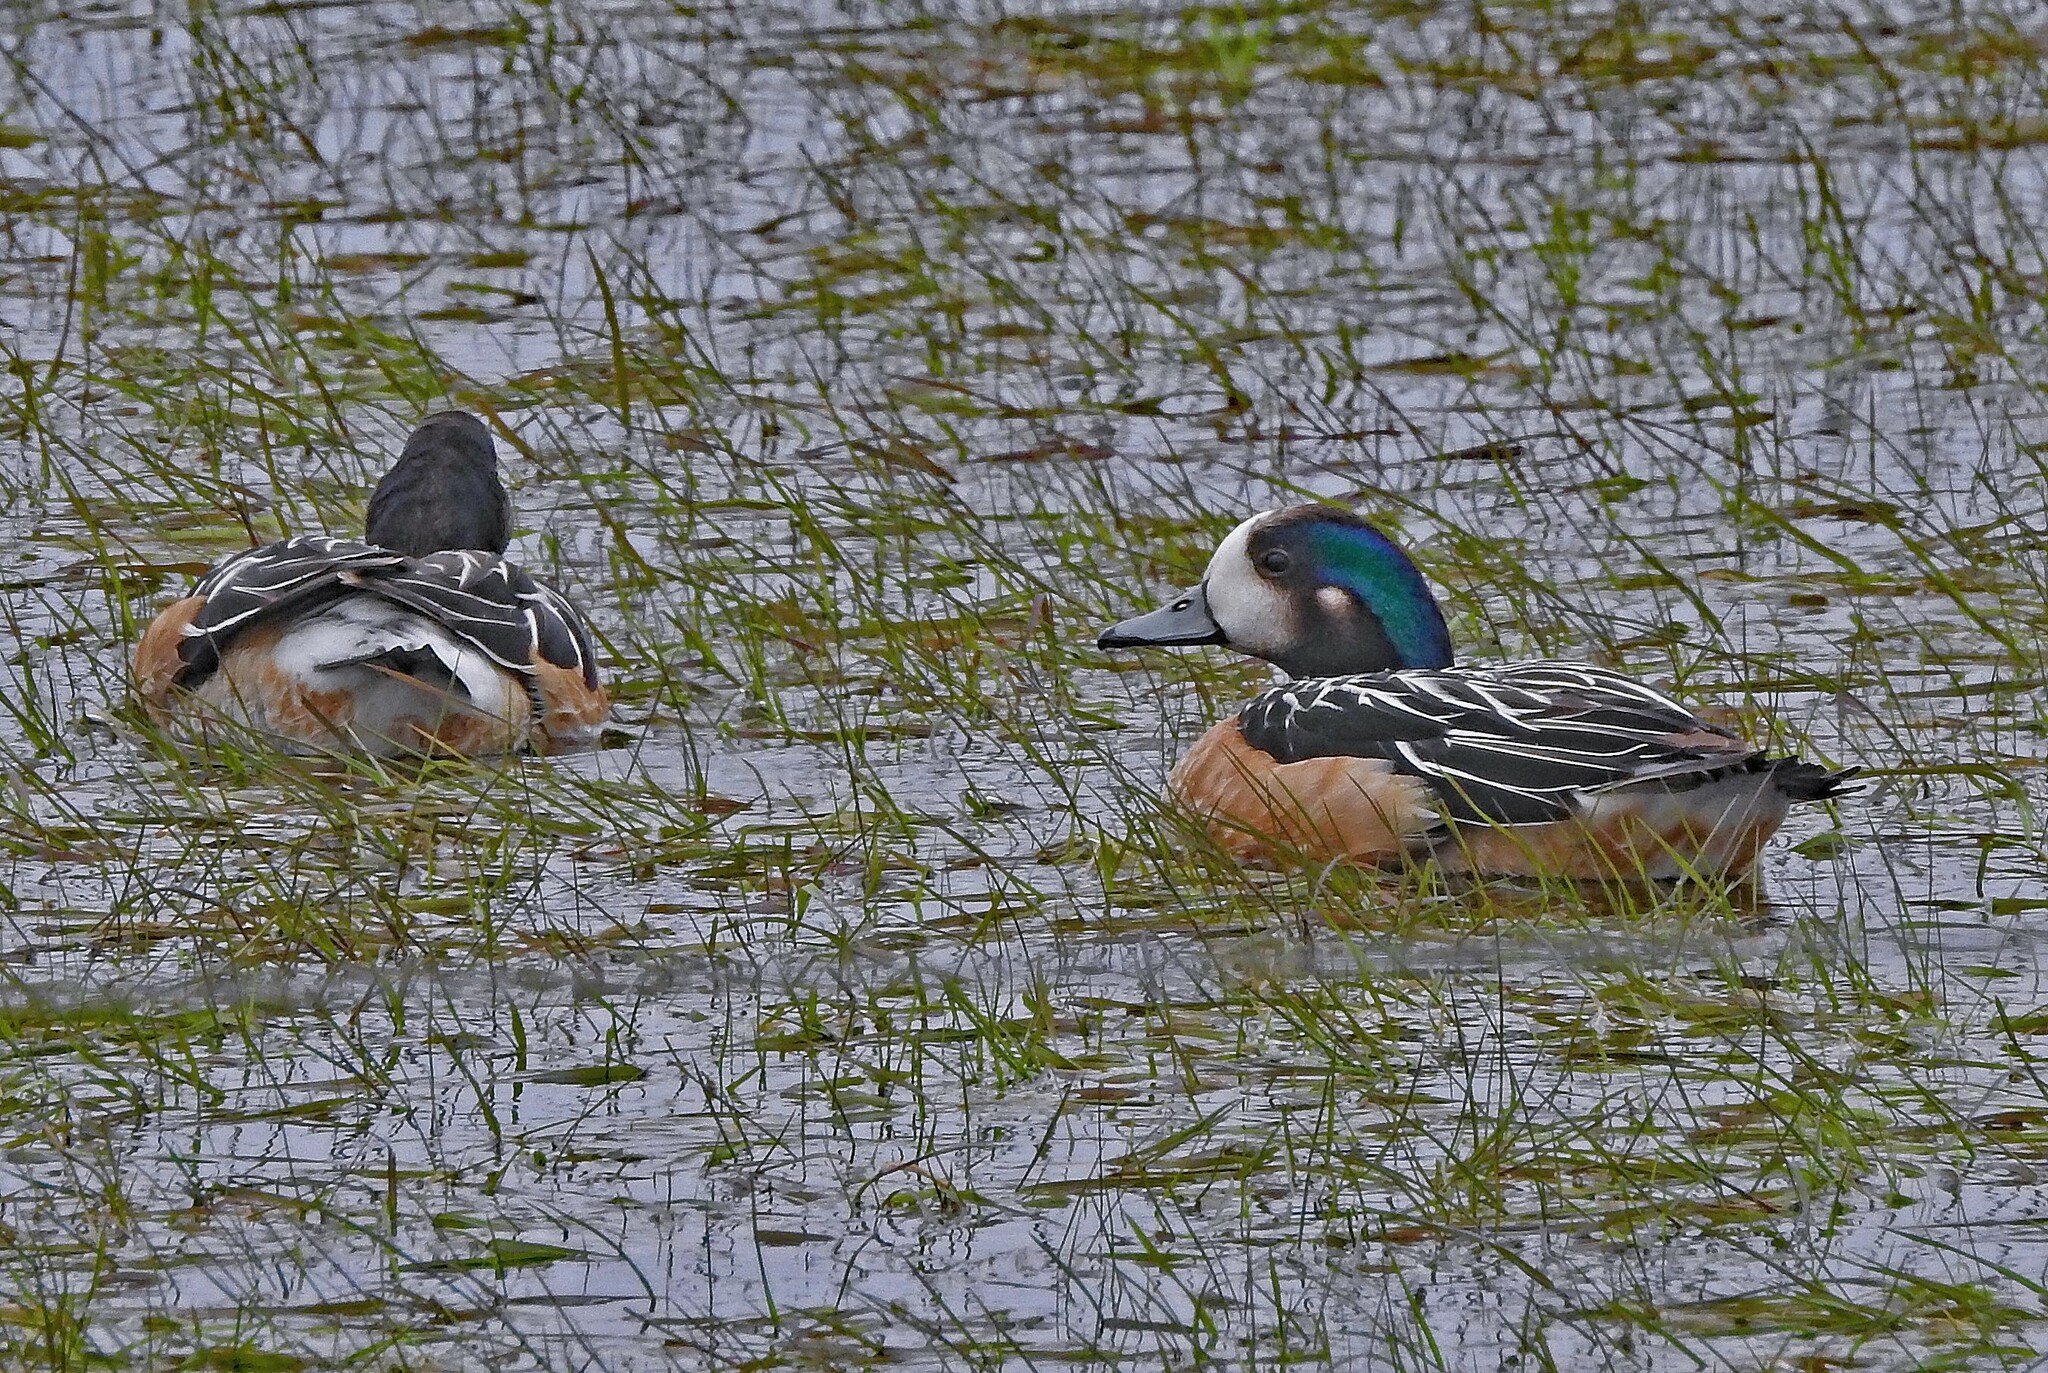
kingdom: Animalia
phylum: Chordata
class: Aves
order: Anseriformes
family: Anatidae
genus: Mareca
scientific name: Mareca sibilatrix
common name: Chiloe wigeon
